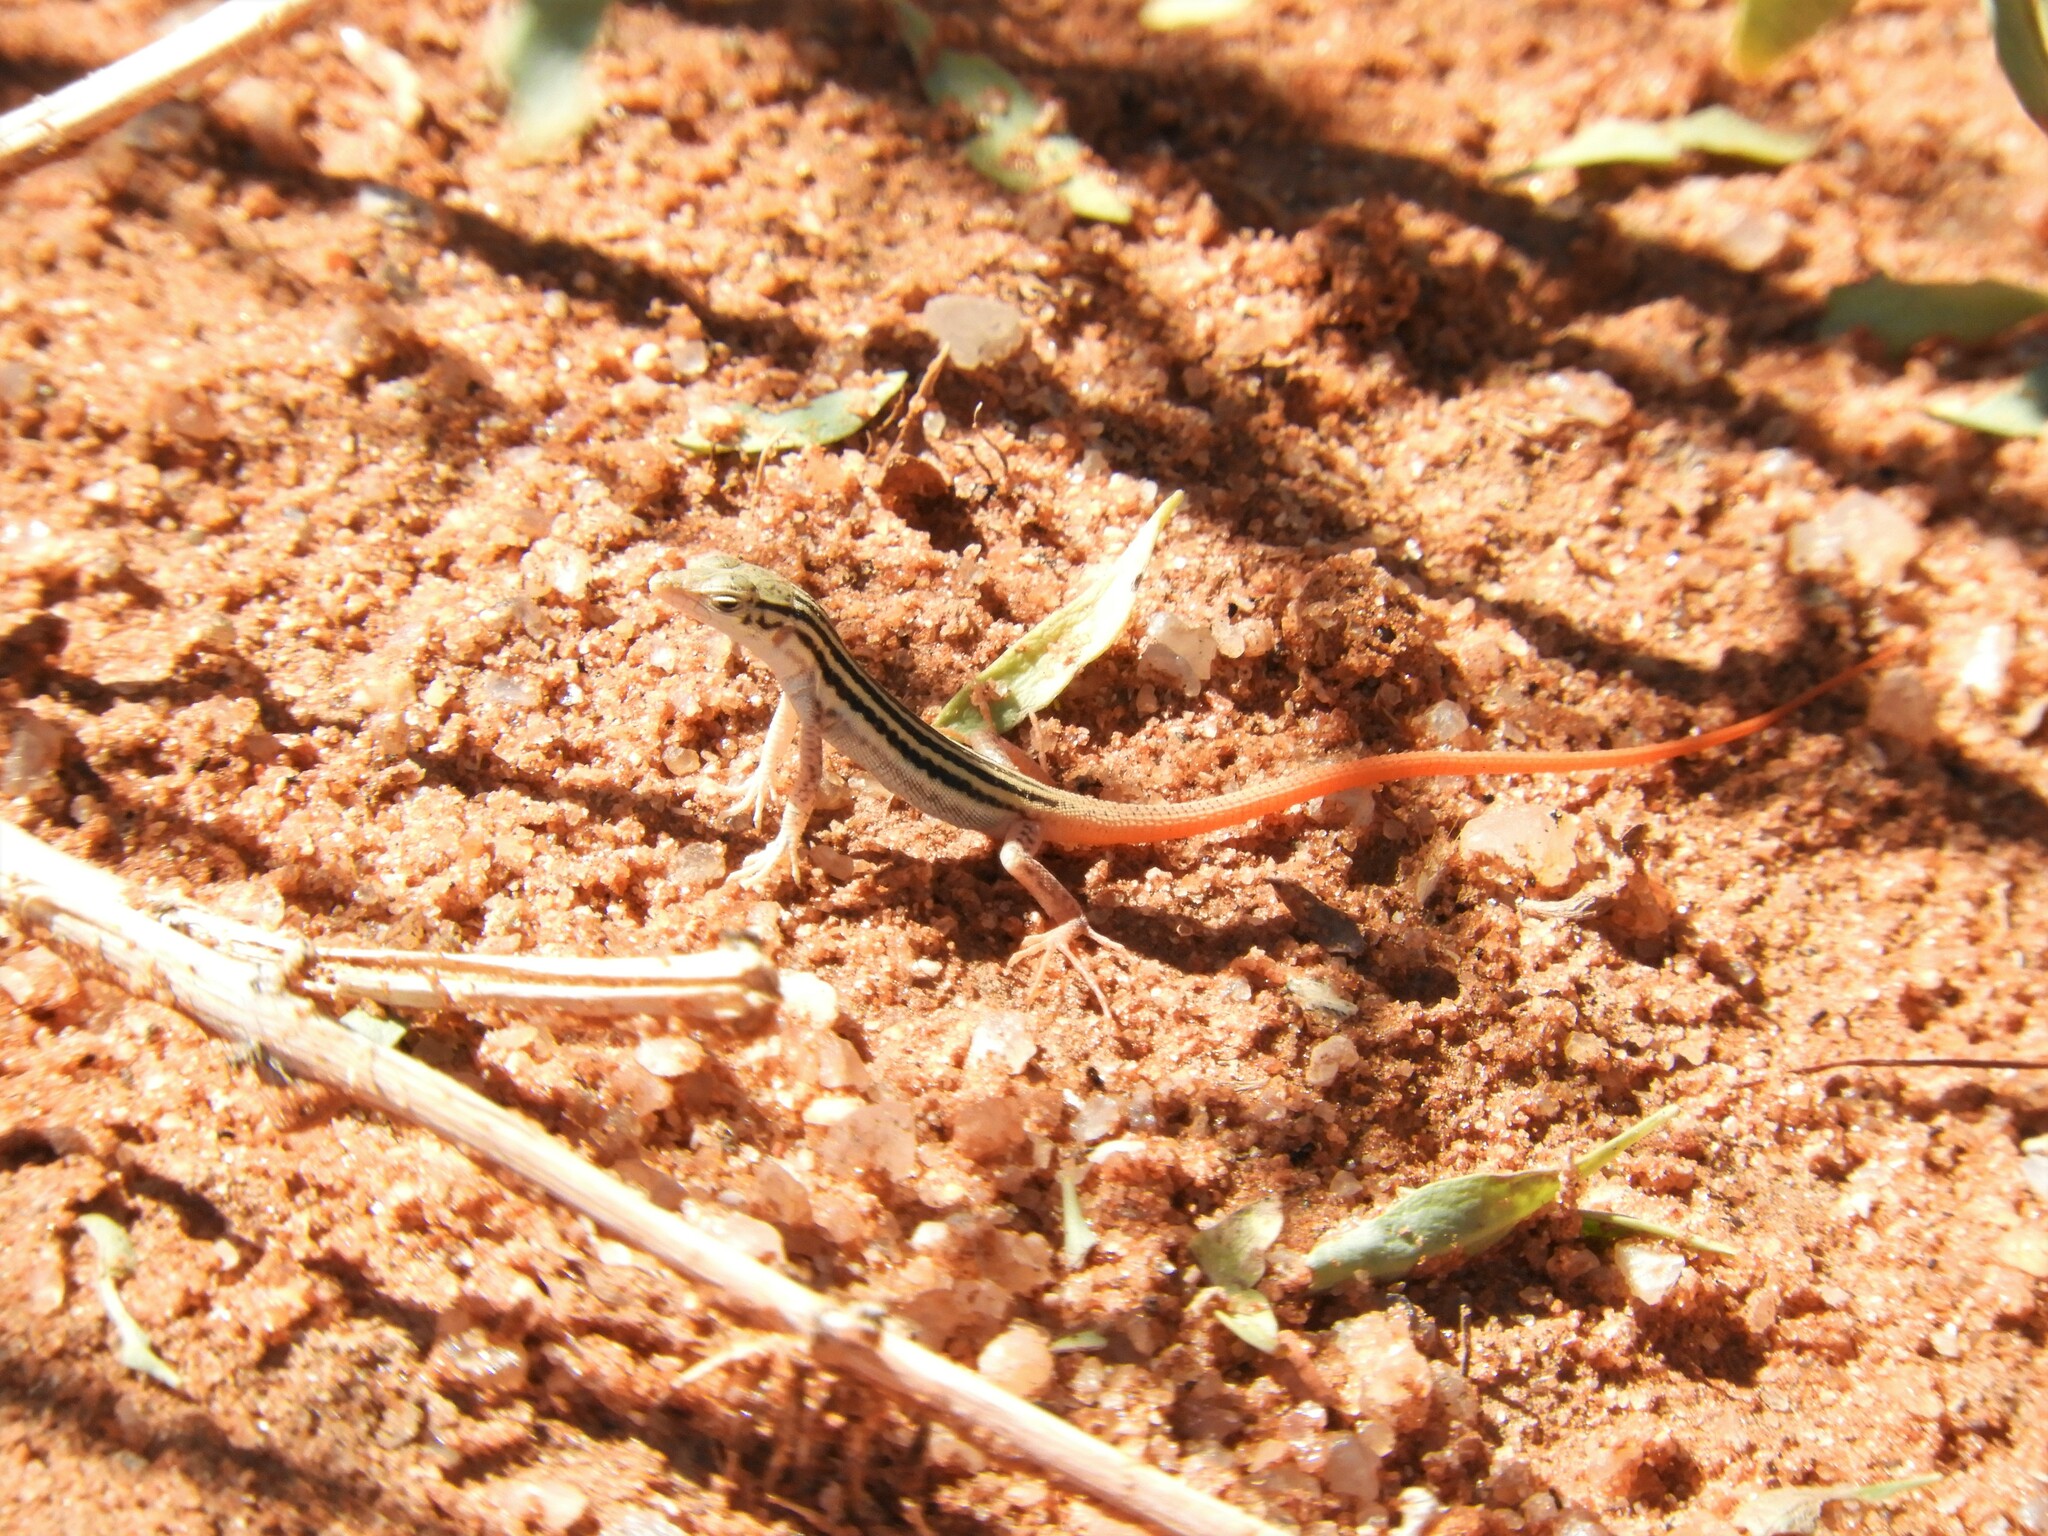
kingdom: Animalia
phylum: Chordata
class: Squamata
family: Lacertidae
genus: Pedioplanis
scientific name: Pedioplanis namaquensis
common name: Namaqua sand lizard
